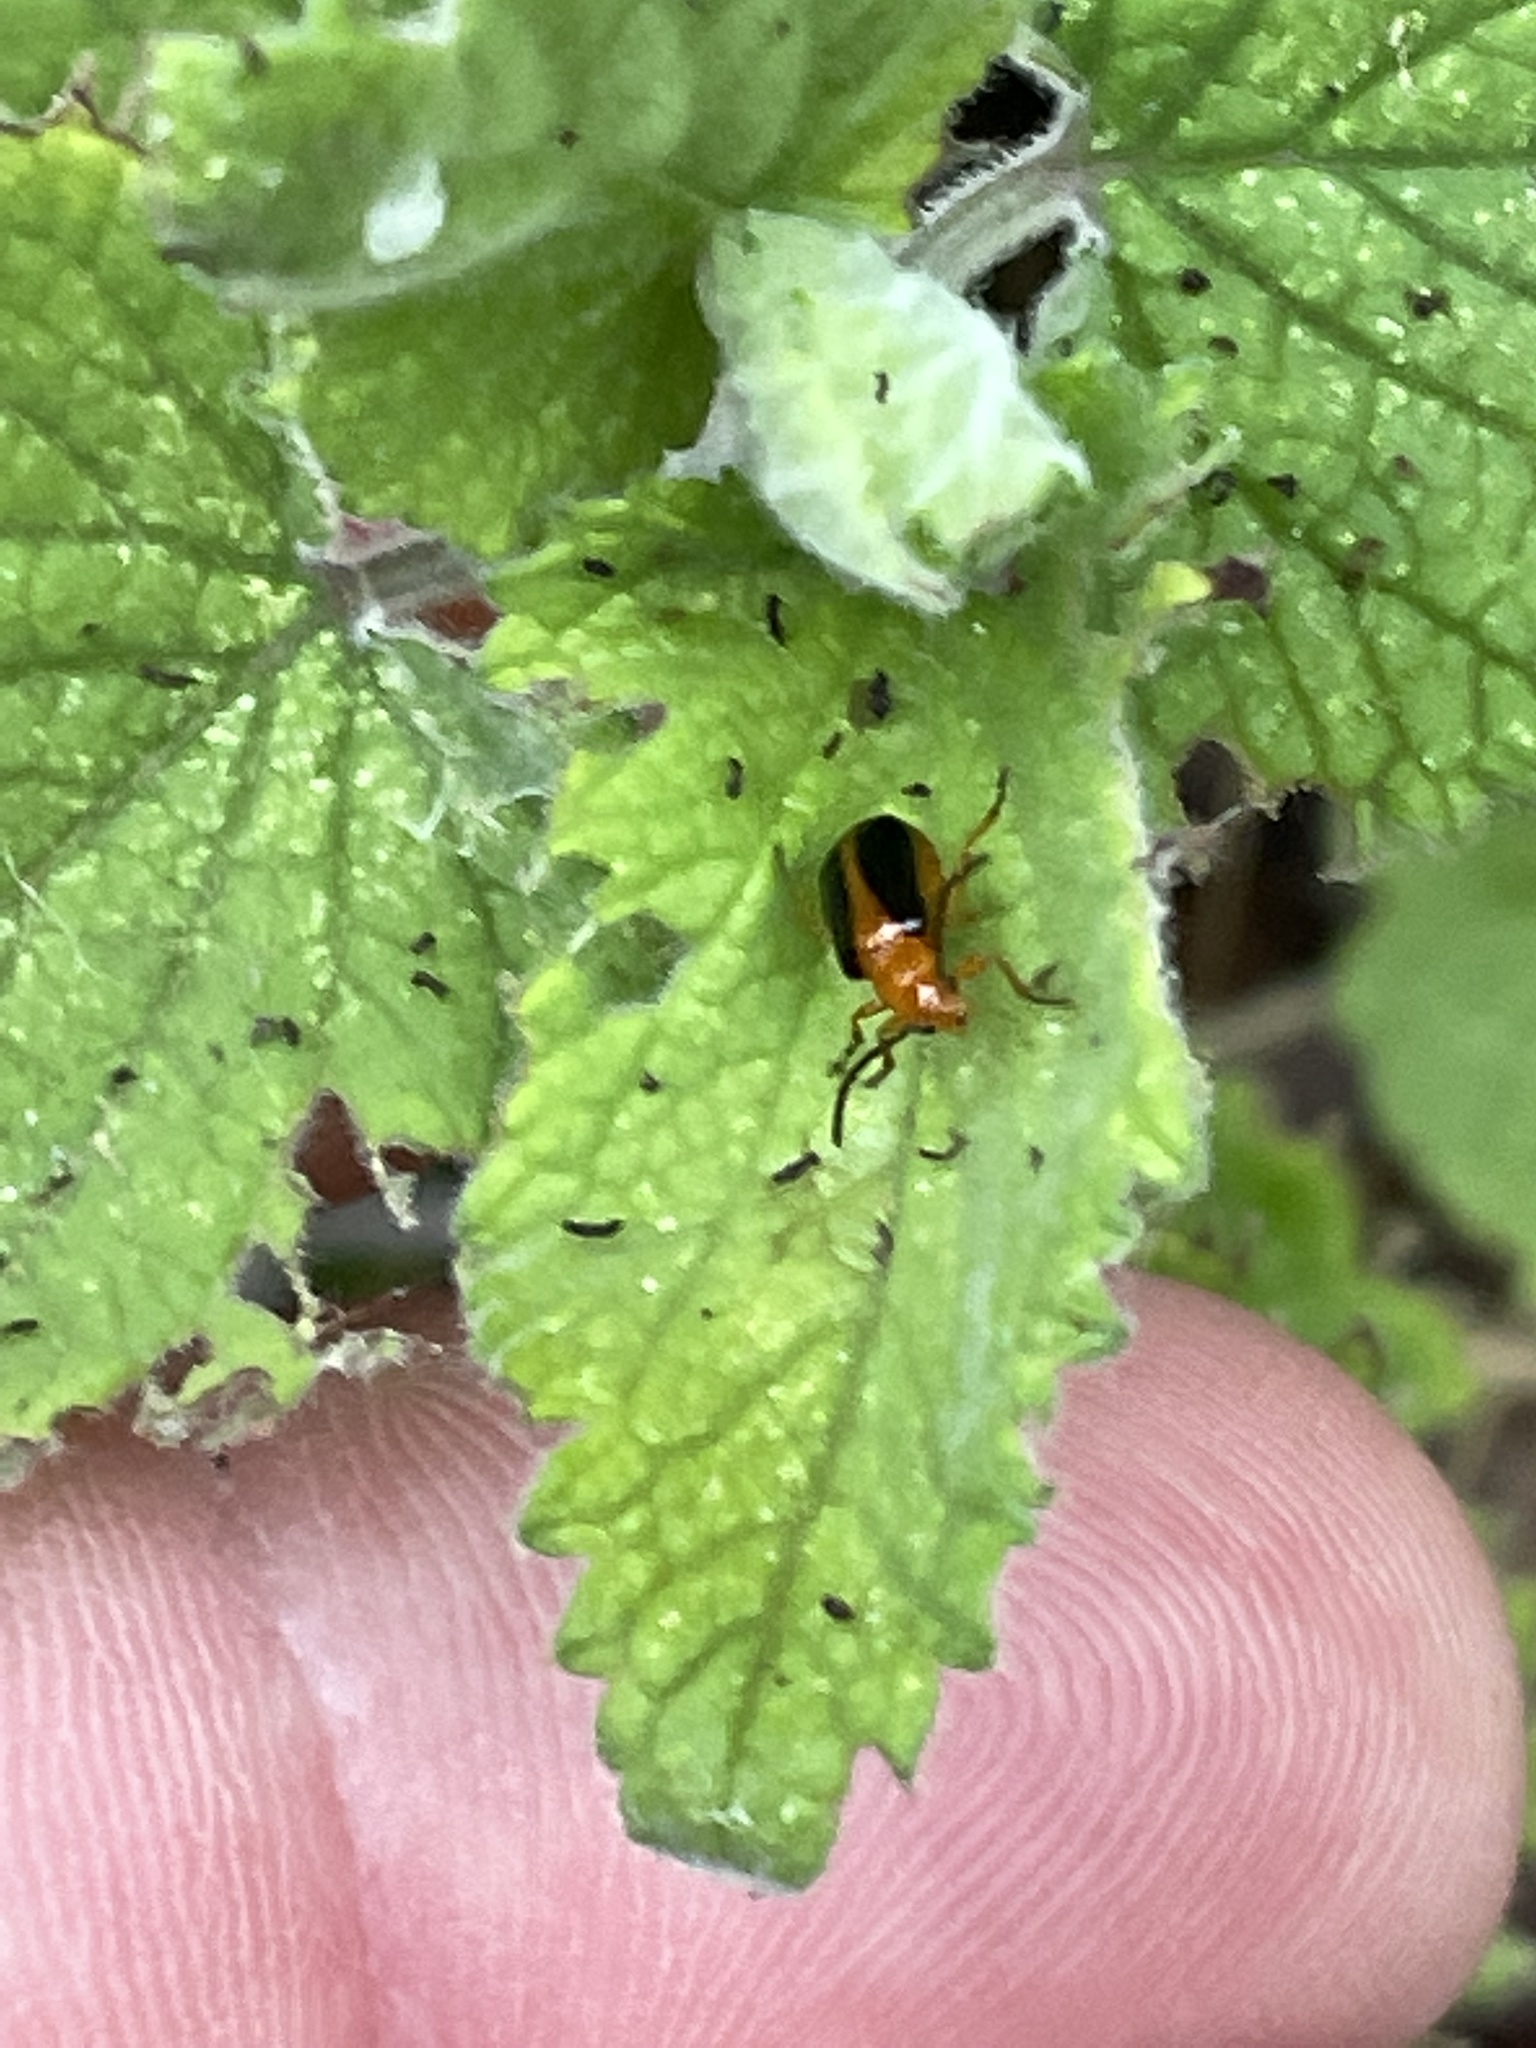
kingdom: Animalia
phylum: Arthropoda
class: Insecta
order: Coleoptera
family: Chrysomelidae
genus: Phyllobrotica
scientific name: Phyllobrotica limbata
